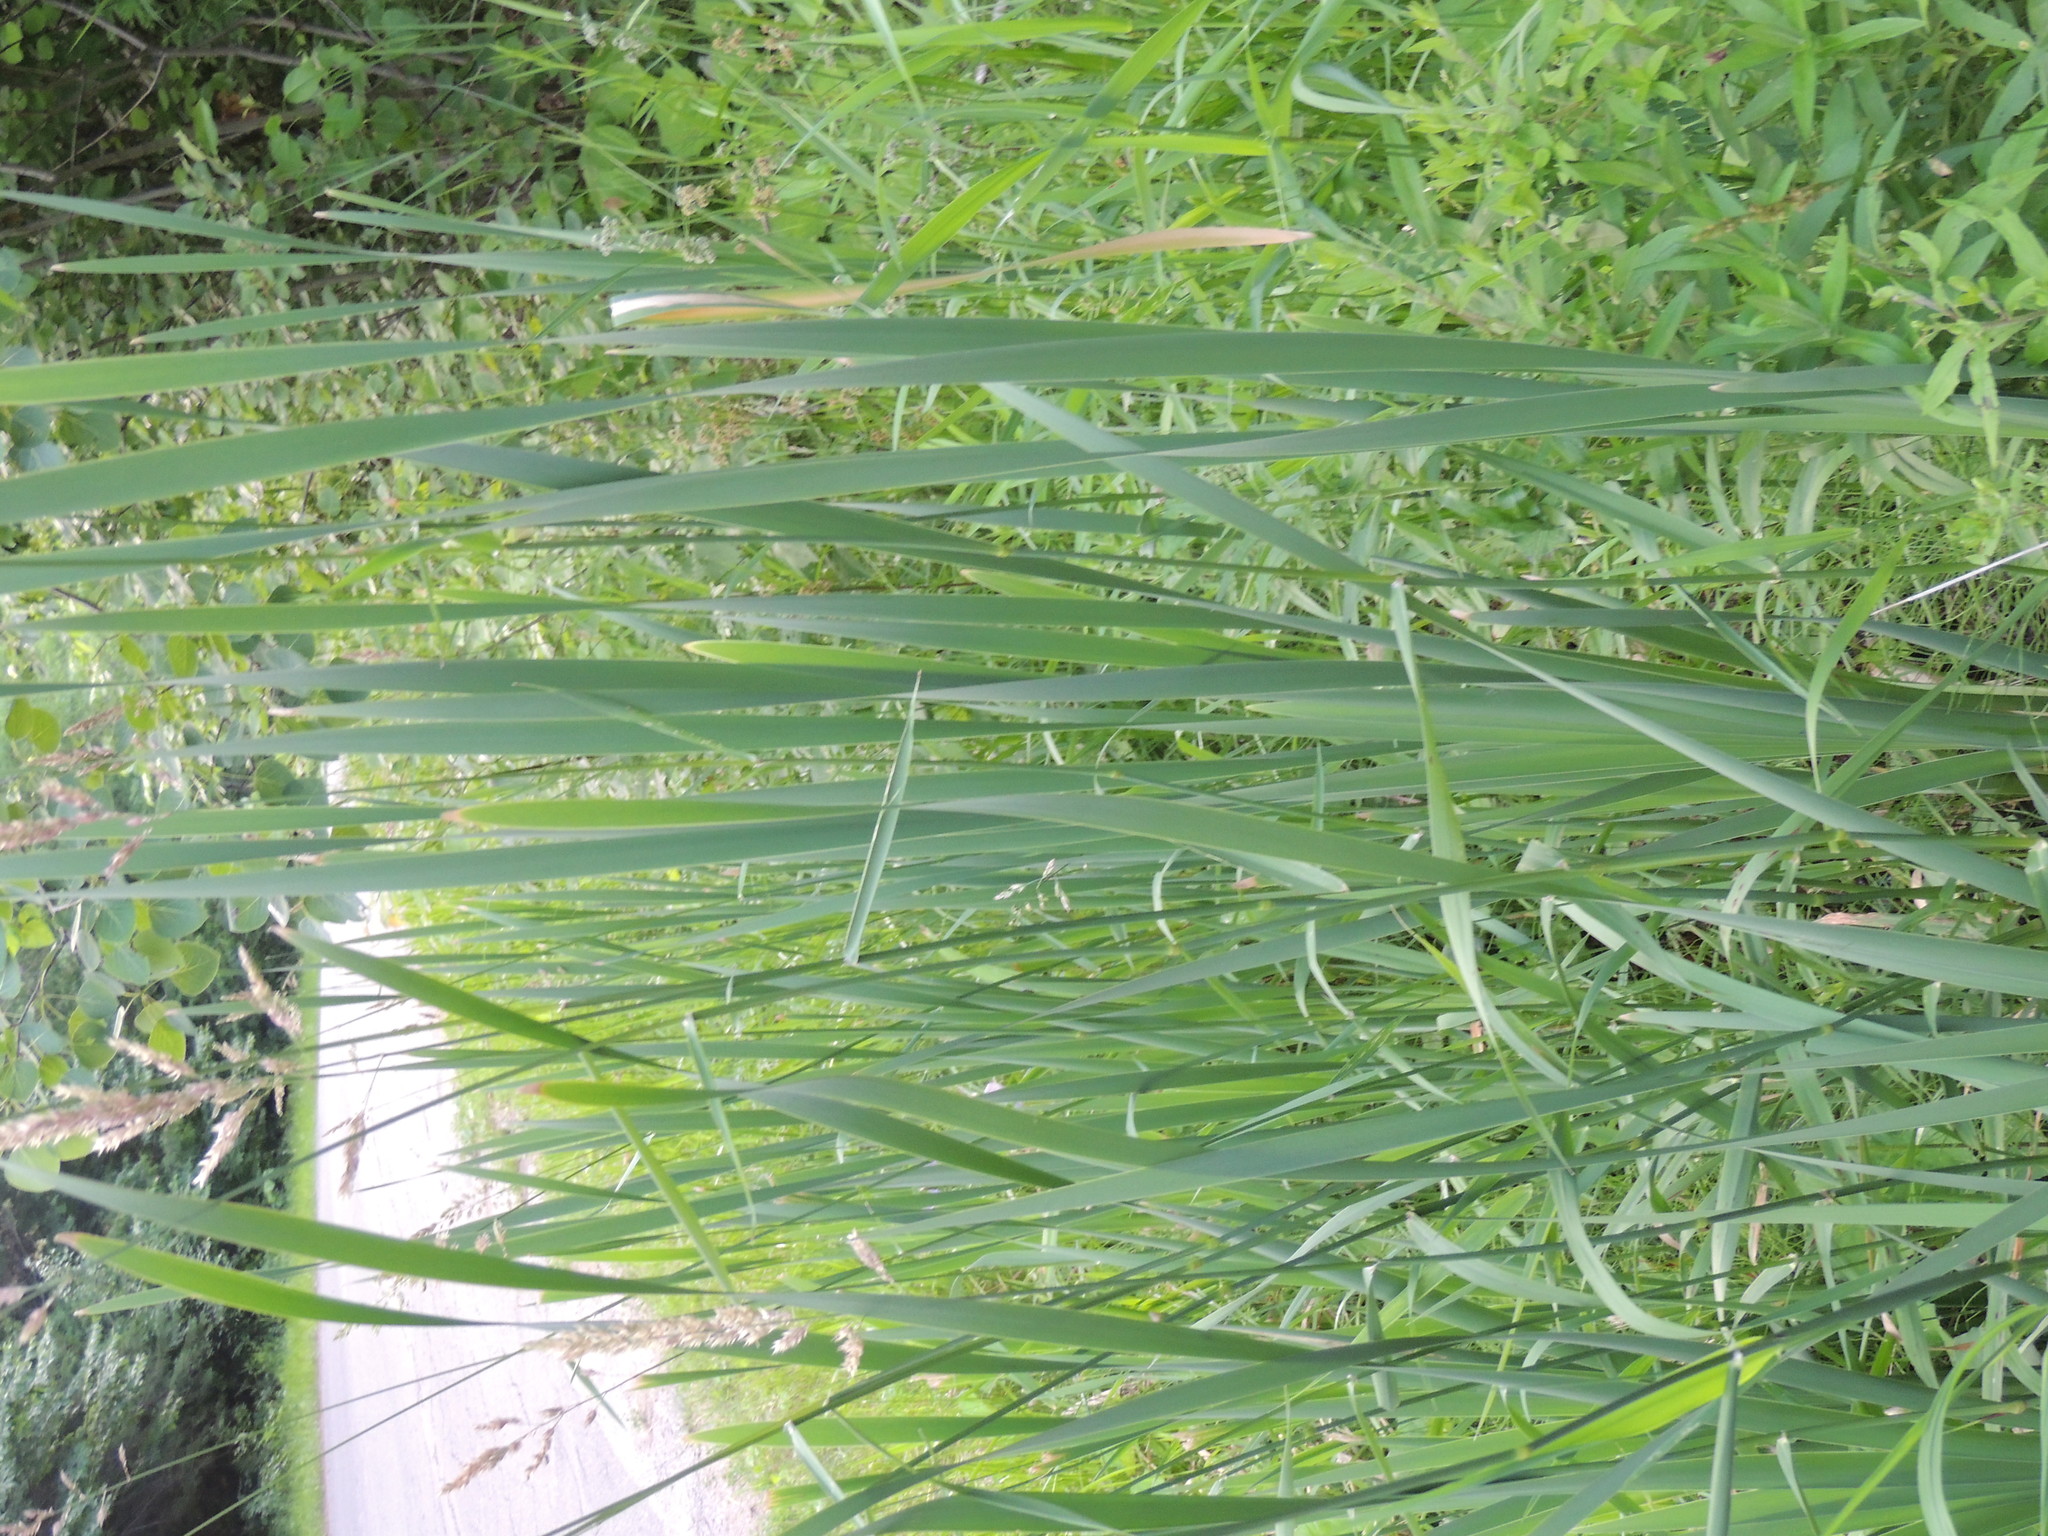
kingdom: Plantae
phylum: Tracheophyta
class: Liliopsida
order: Poales
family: Typhaceae
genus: Typha
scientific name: Typha latifolia
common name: Broadleaf cattail
